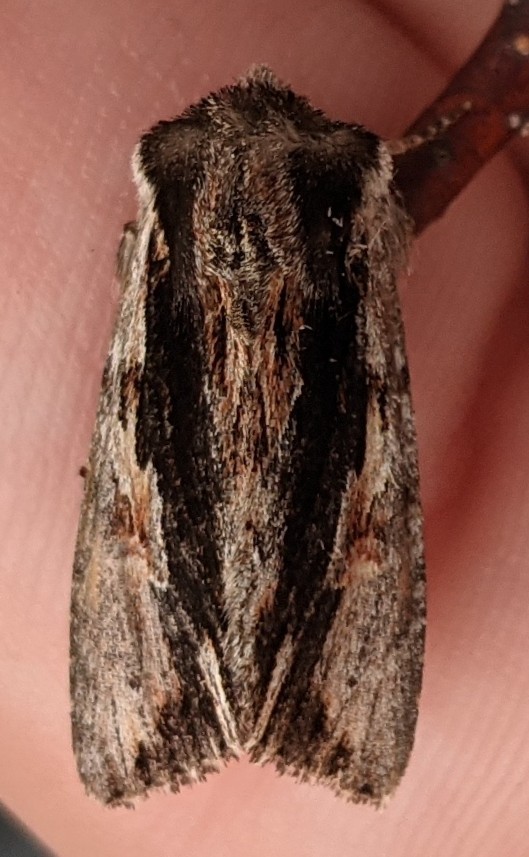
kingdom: Animalia
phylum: Arthropoda
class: Insecta
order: Lepidoptera
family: Noctuidae
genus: Achatia
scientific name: Achatia evicta
